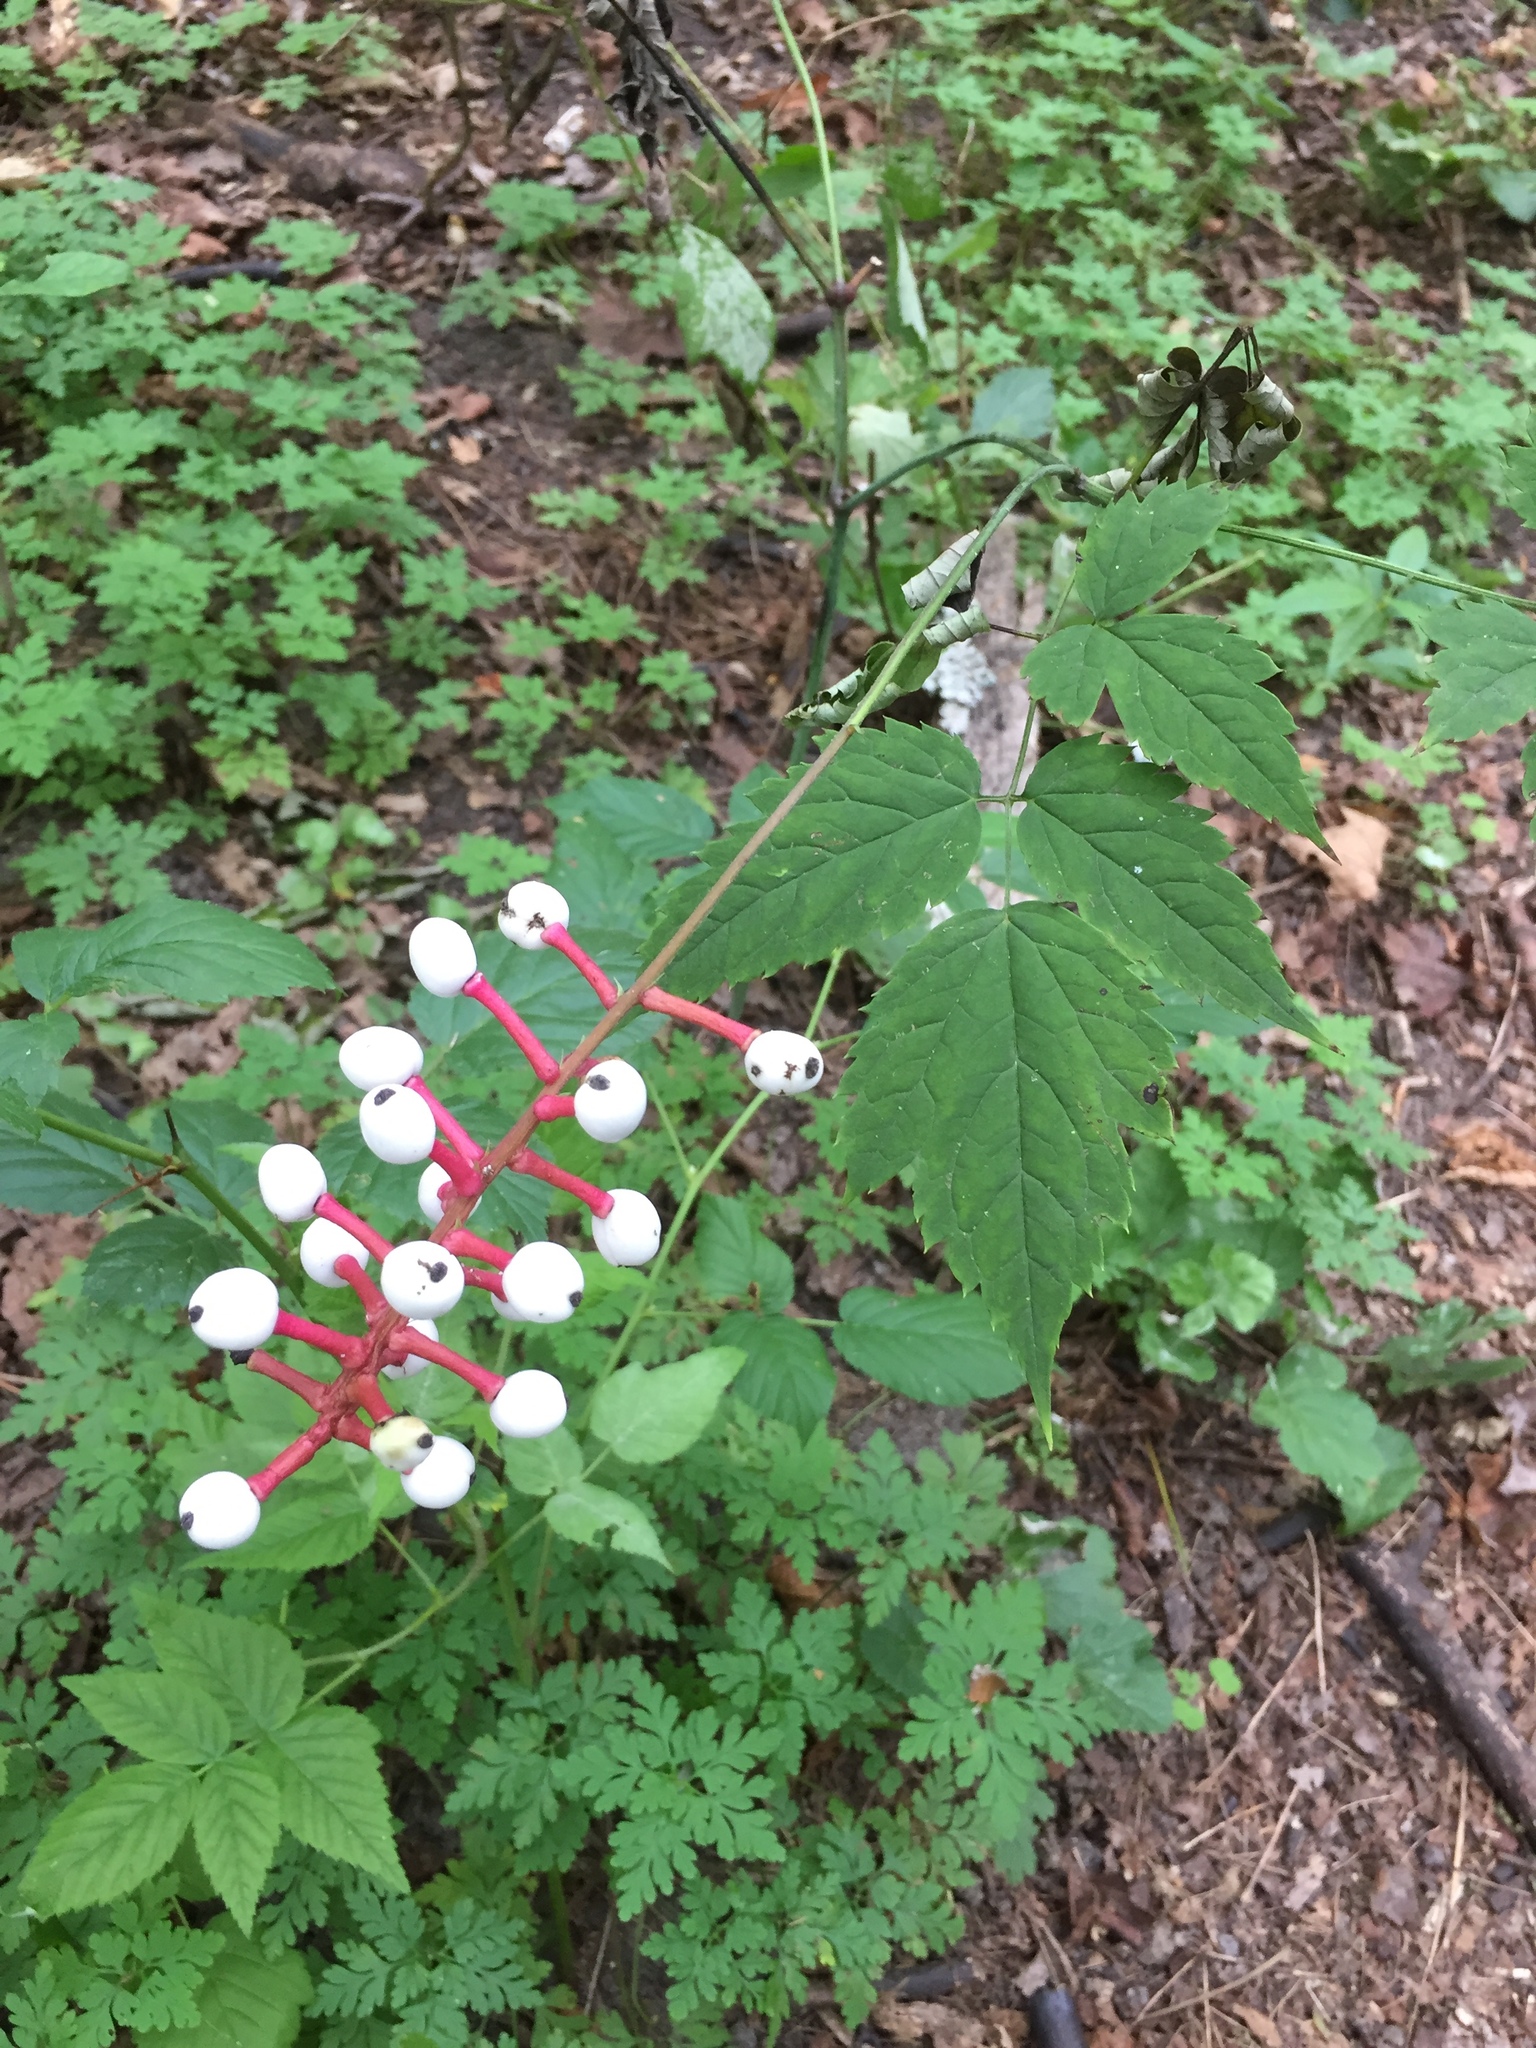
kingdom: Plantae
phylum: Tracheophyta
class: Magnoliopsida
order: Ranunculales
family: Ranunculaceae
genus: Actaea
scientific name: Actaea pachypoda
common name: Doll's-eyes
